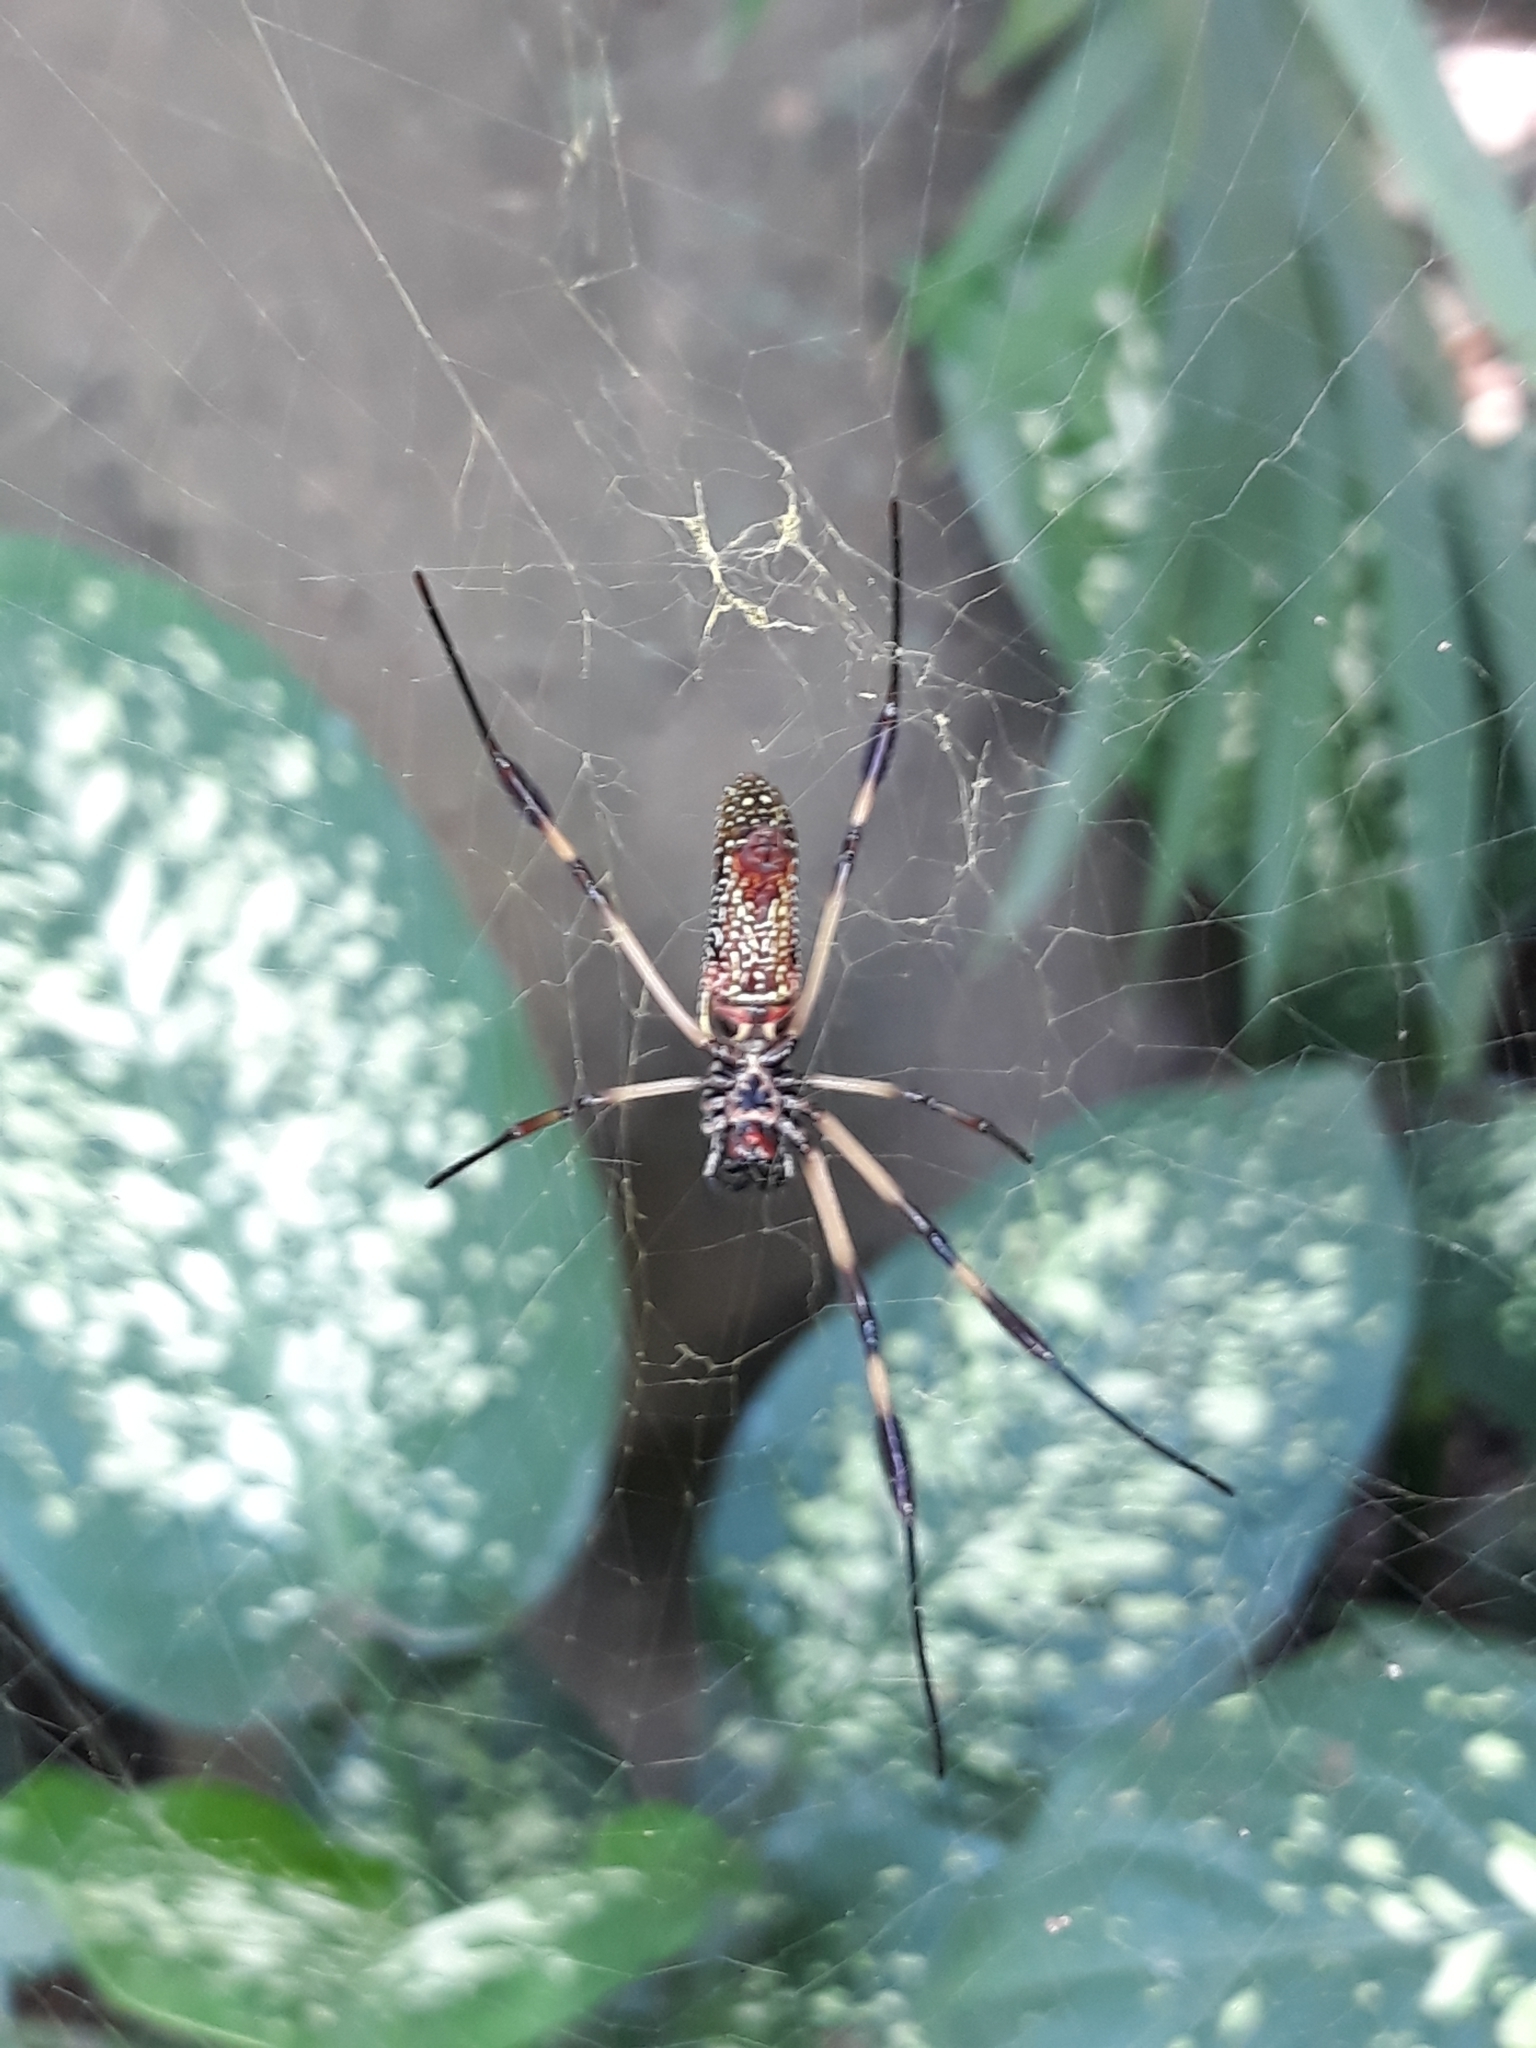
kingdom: Animalia
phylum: Arthropoda
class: Arachnida
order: Araneae
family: Araneidae
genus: Trichonephila
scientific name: Trichonephila clavipes
